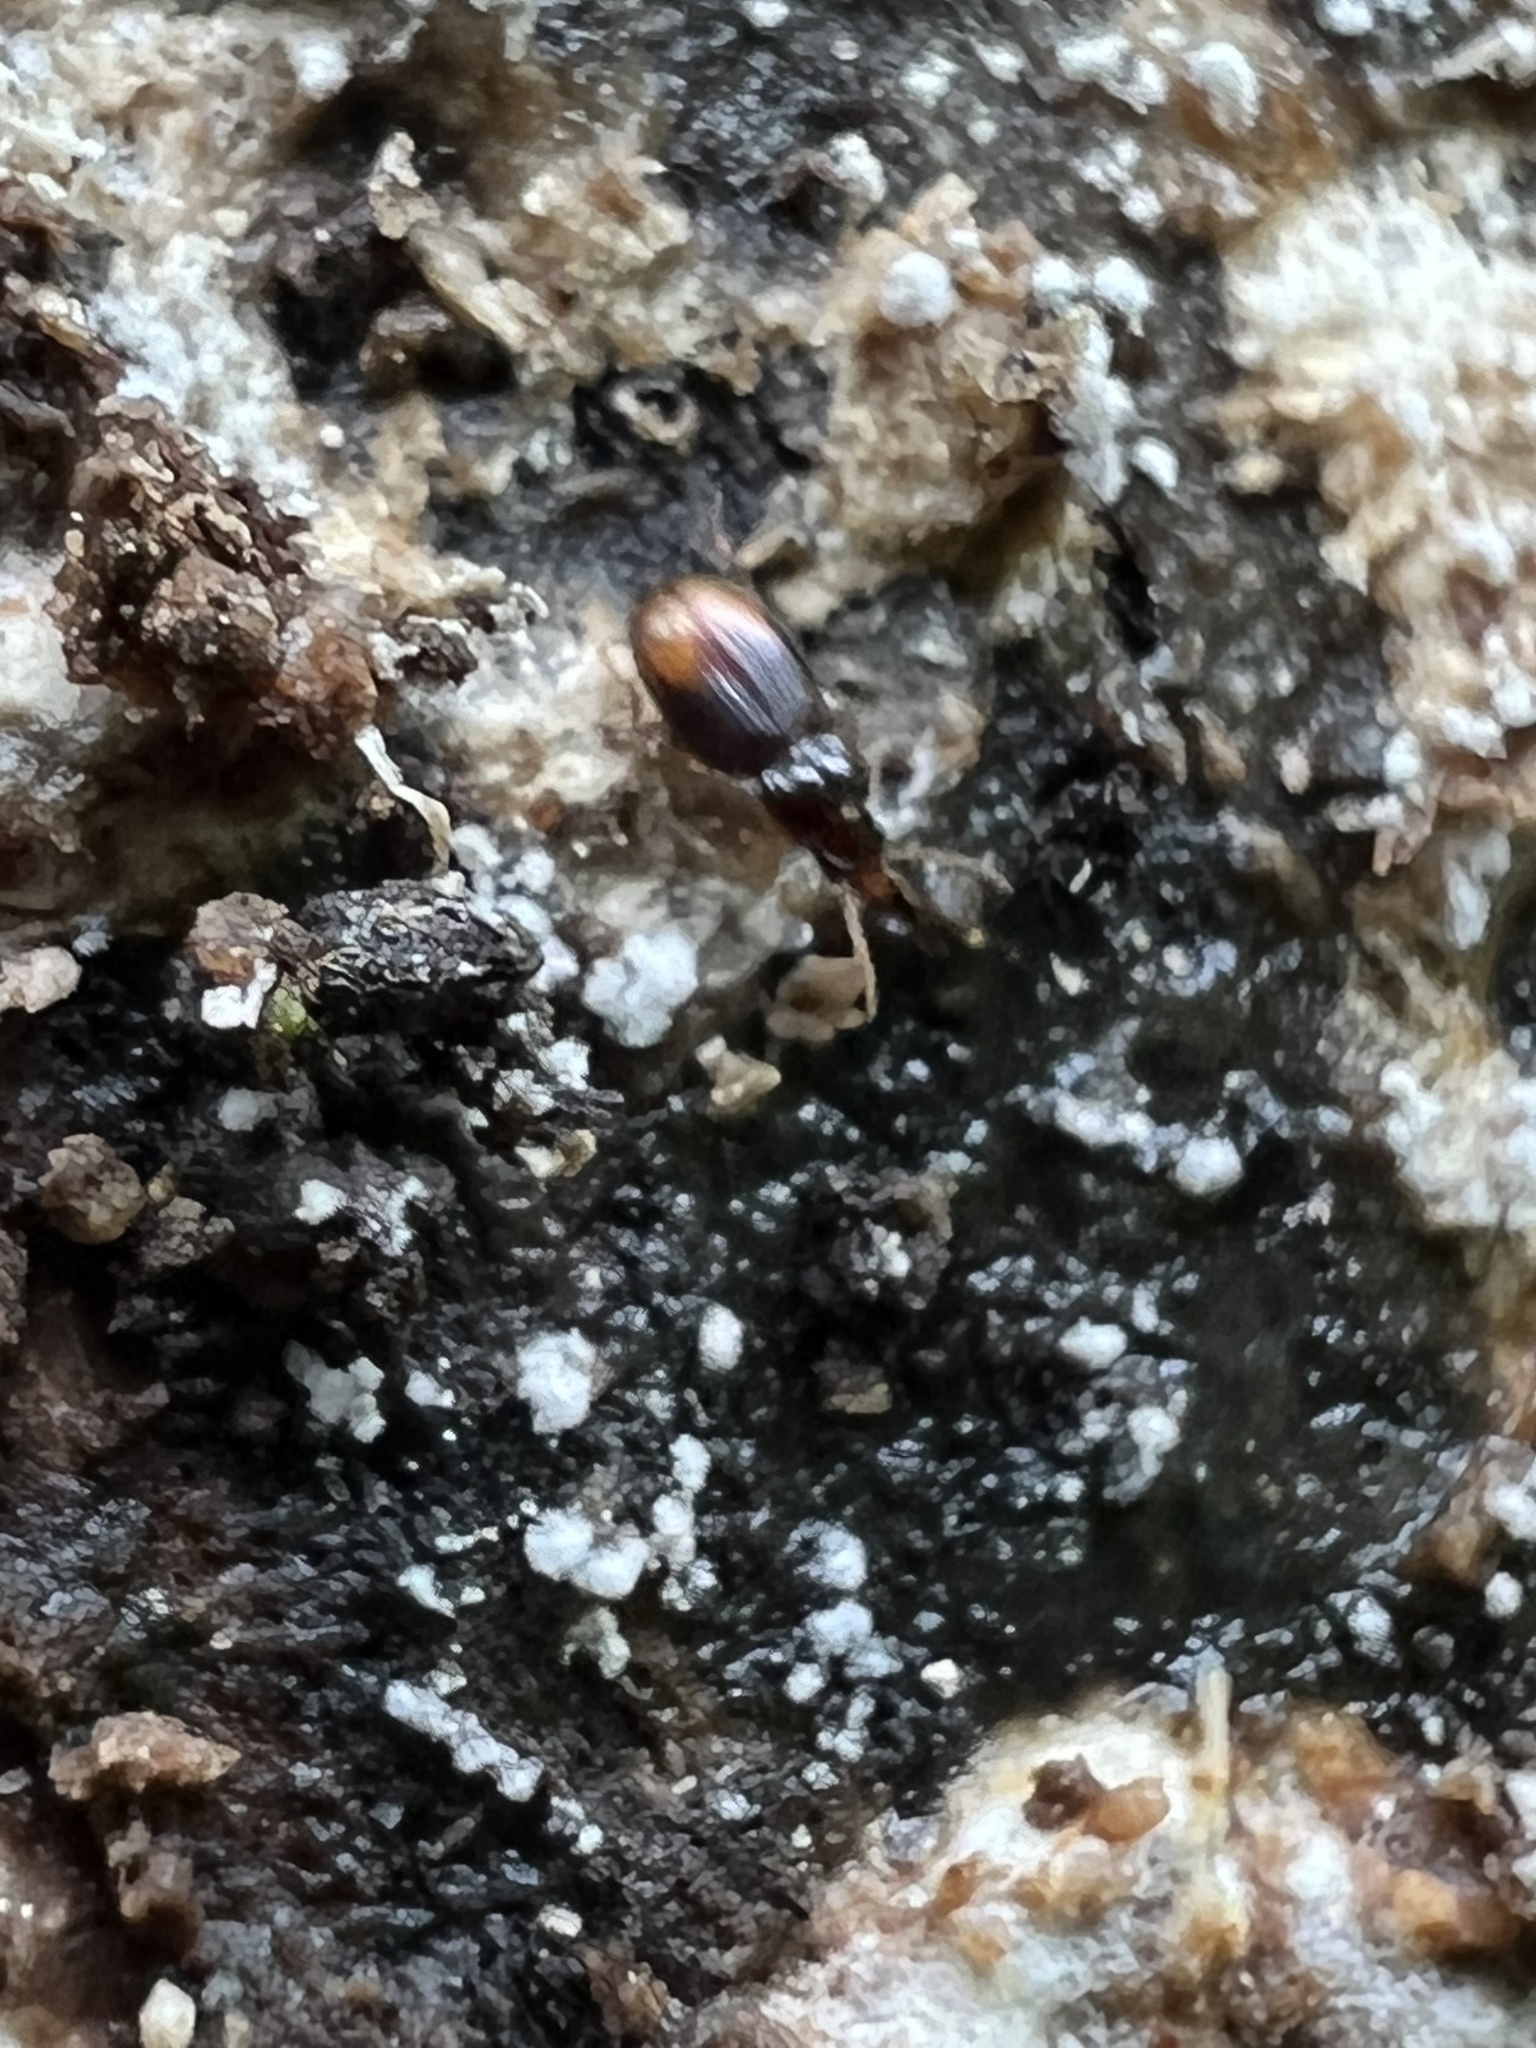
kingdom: Animalia
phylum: Arthropoda
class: Insecta
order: Coleoptera
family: Carabidae
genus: Mioptachys
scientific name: Mioptachys flavicauda
